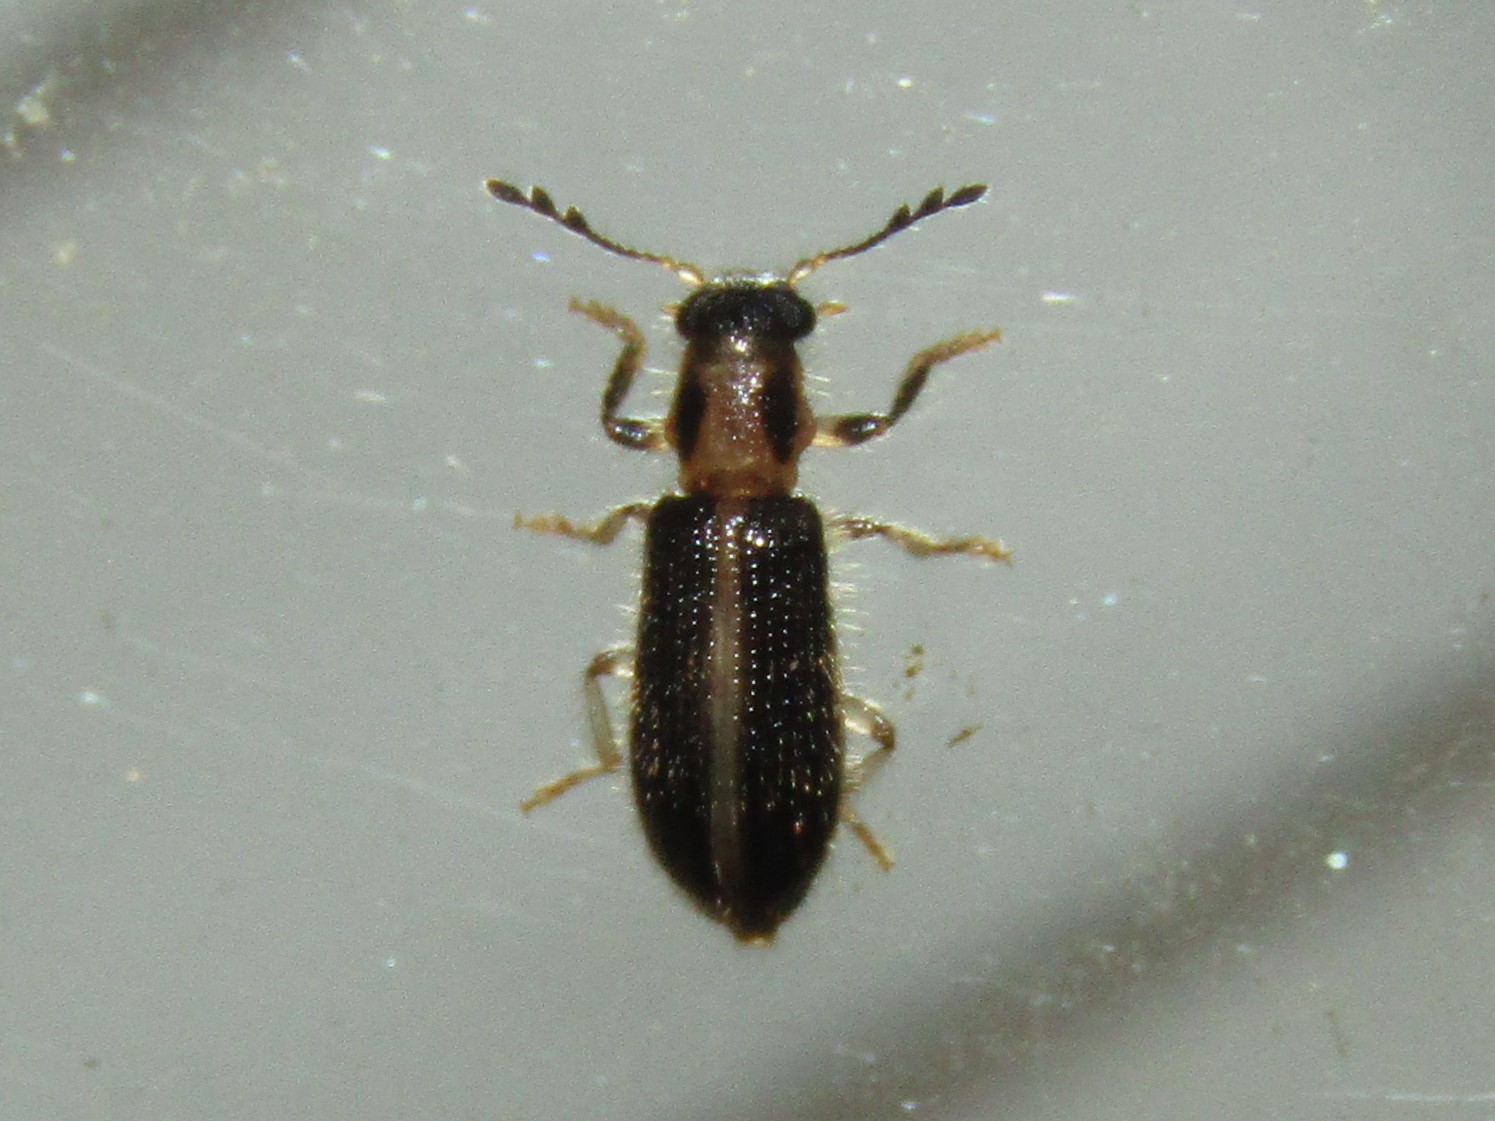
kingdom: Animalia
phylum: Arthropoda
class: Insecta
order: Coleoptera
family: Cleridae
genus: Cregya
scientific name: Cregya oculata
